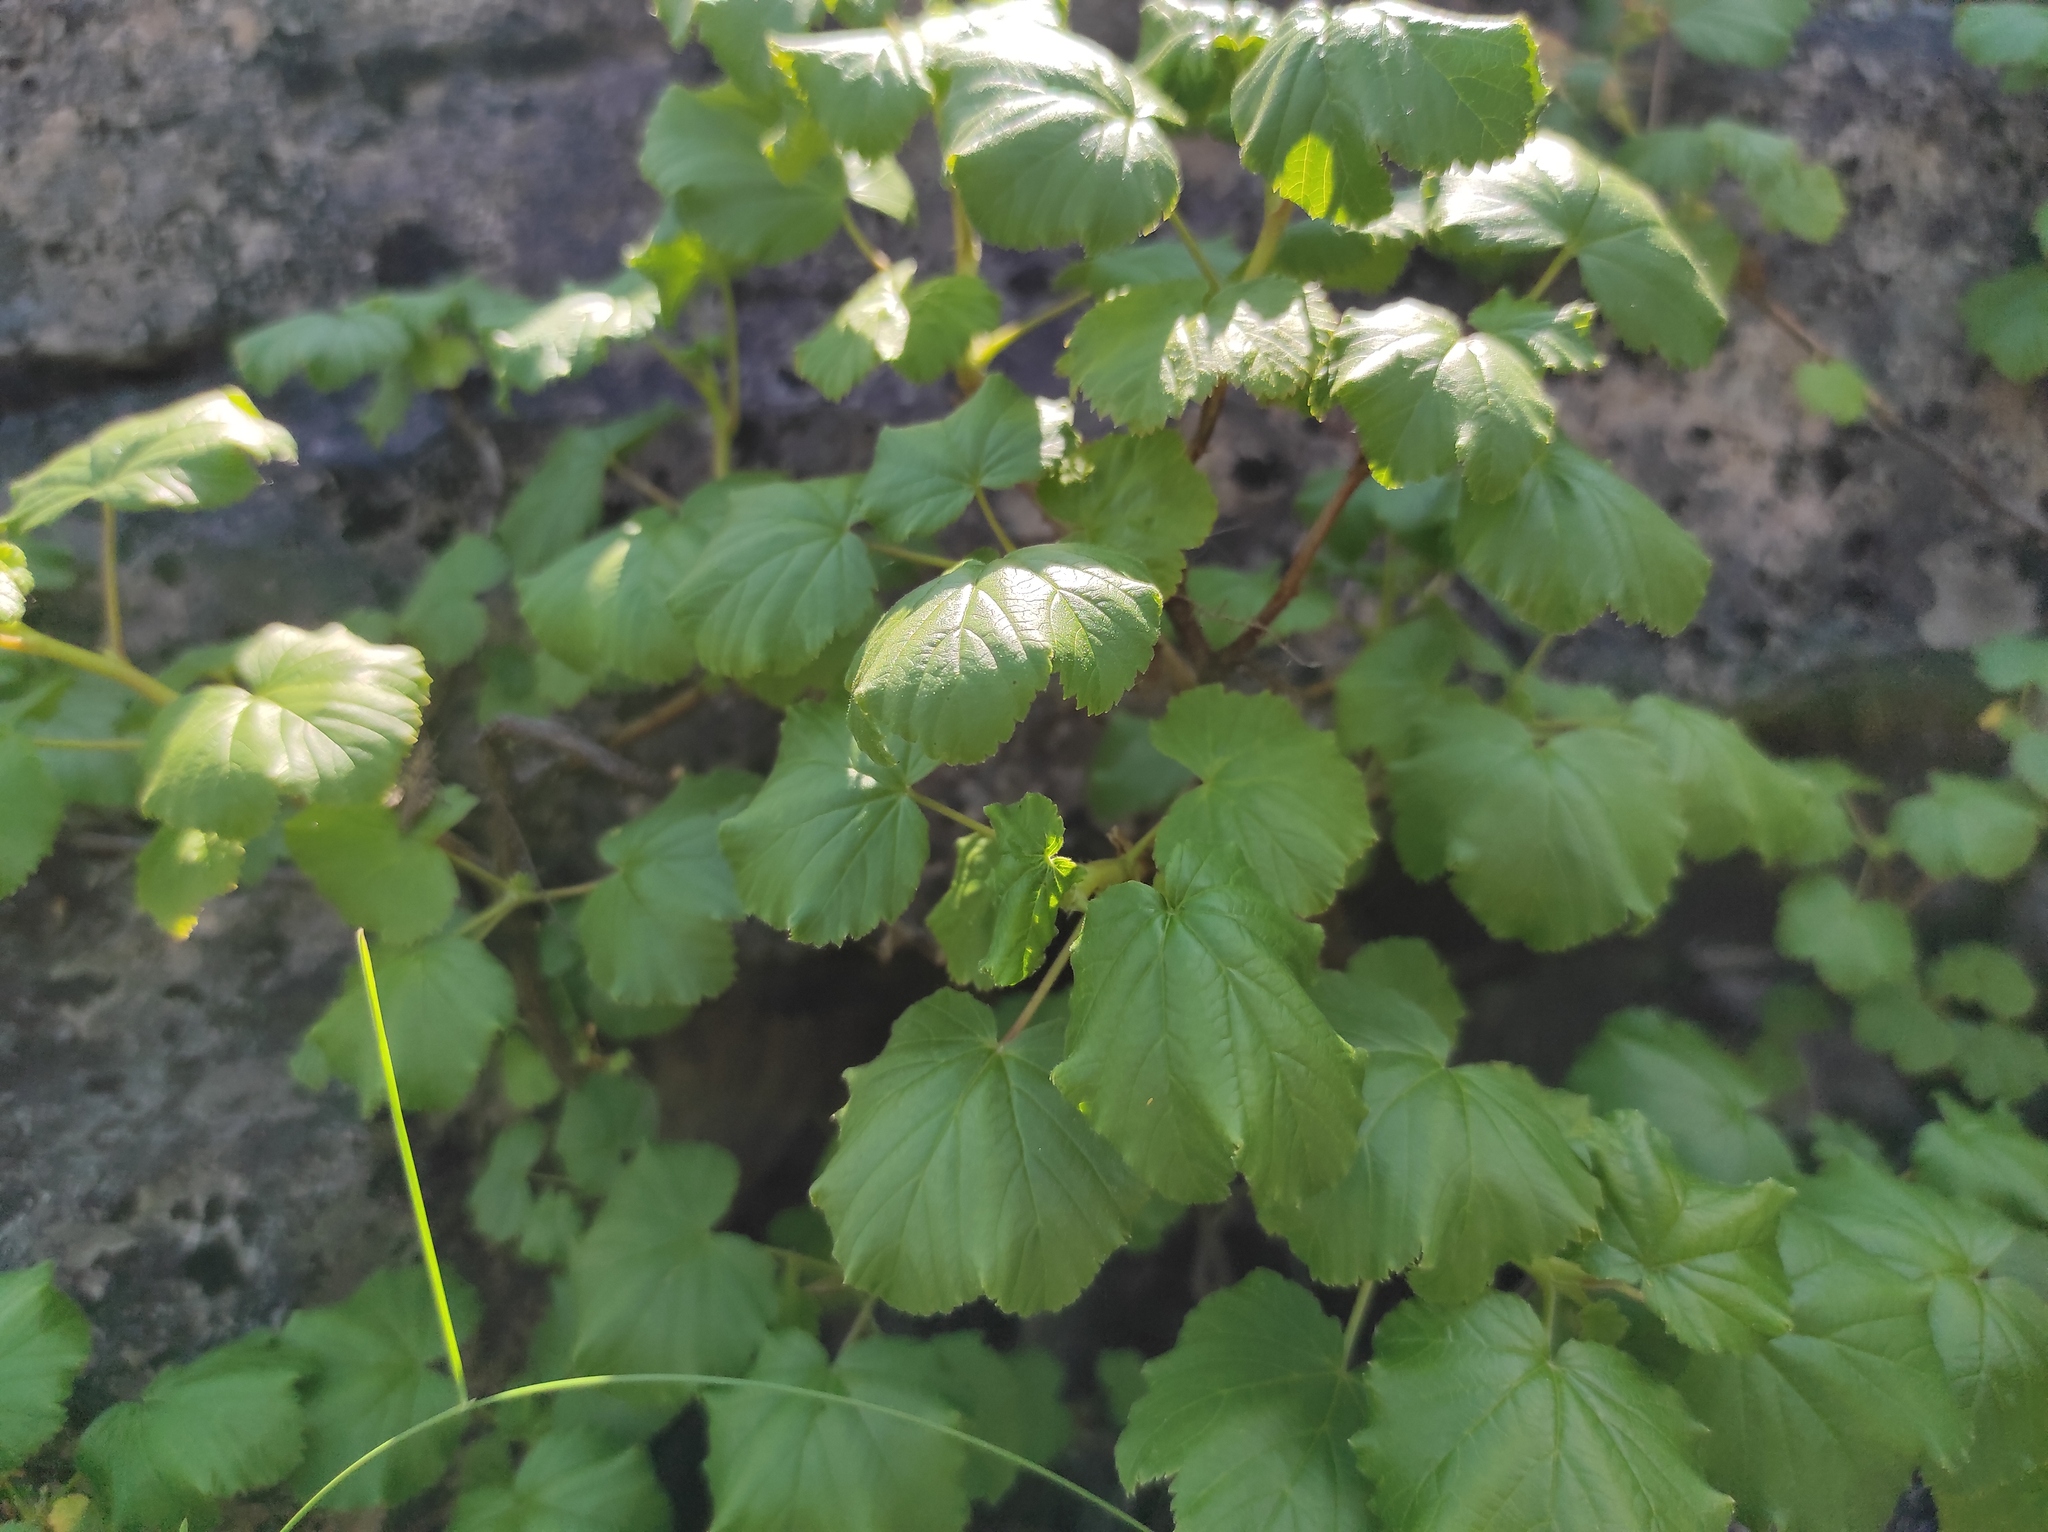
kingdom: Plantae
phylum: Tracheophyta
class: Magnoliopsida
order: Saxifragales
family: Grossulariaceae
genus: Ribes
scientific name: Ribes fragrans
